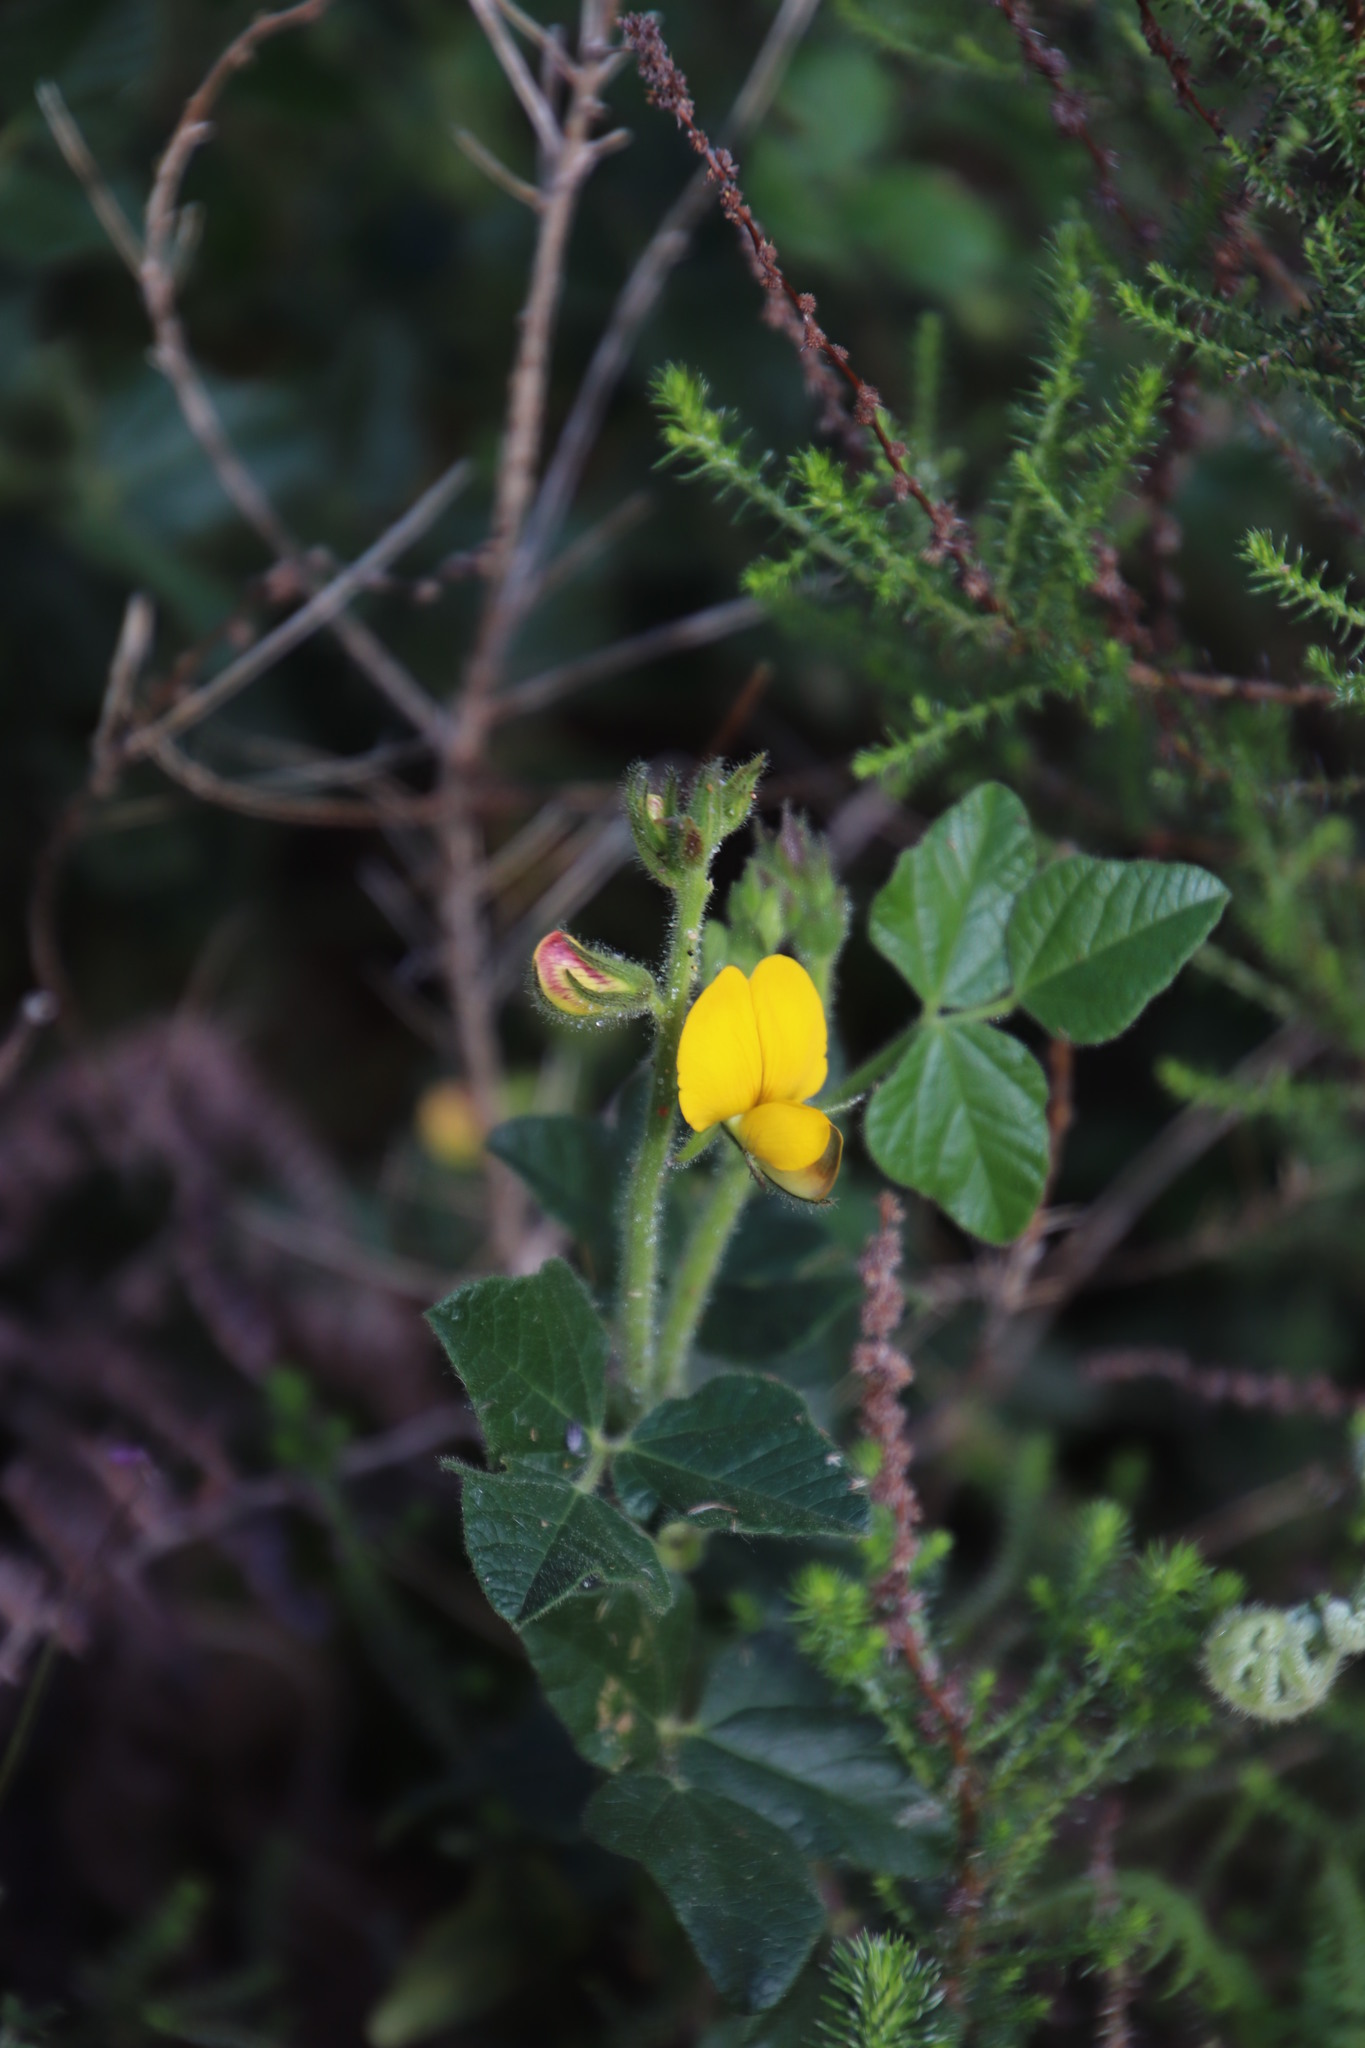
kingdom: Plantae
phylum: Tracheophyta
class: Magnoliopsida
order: Fabales
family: Fabaceae
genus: Bolusafra
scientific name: Bolusafra bituminosa
